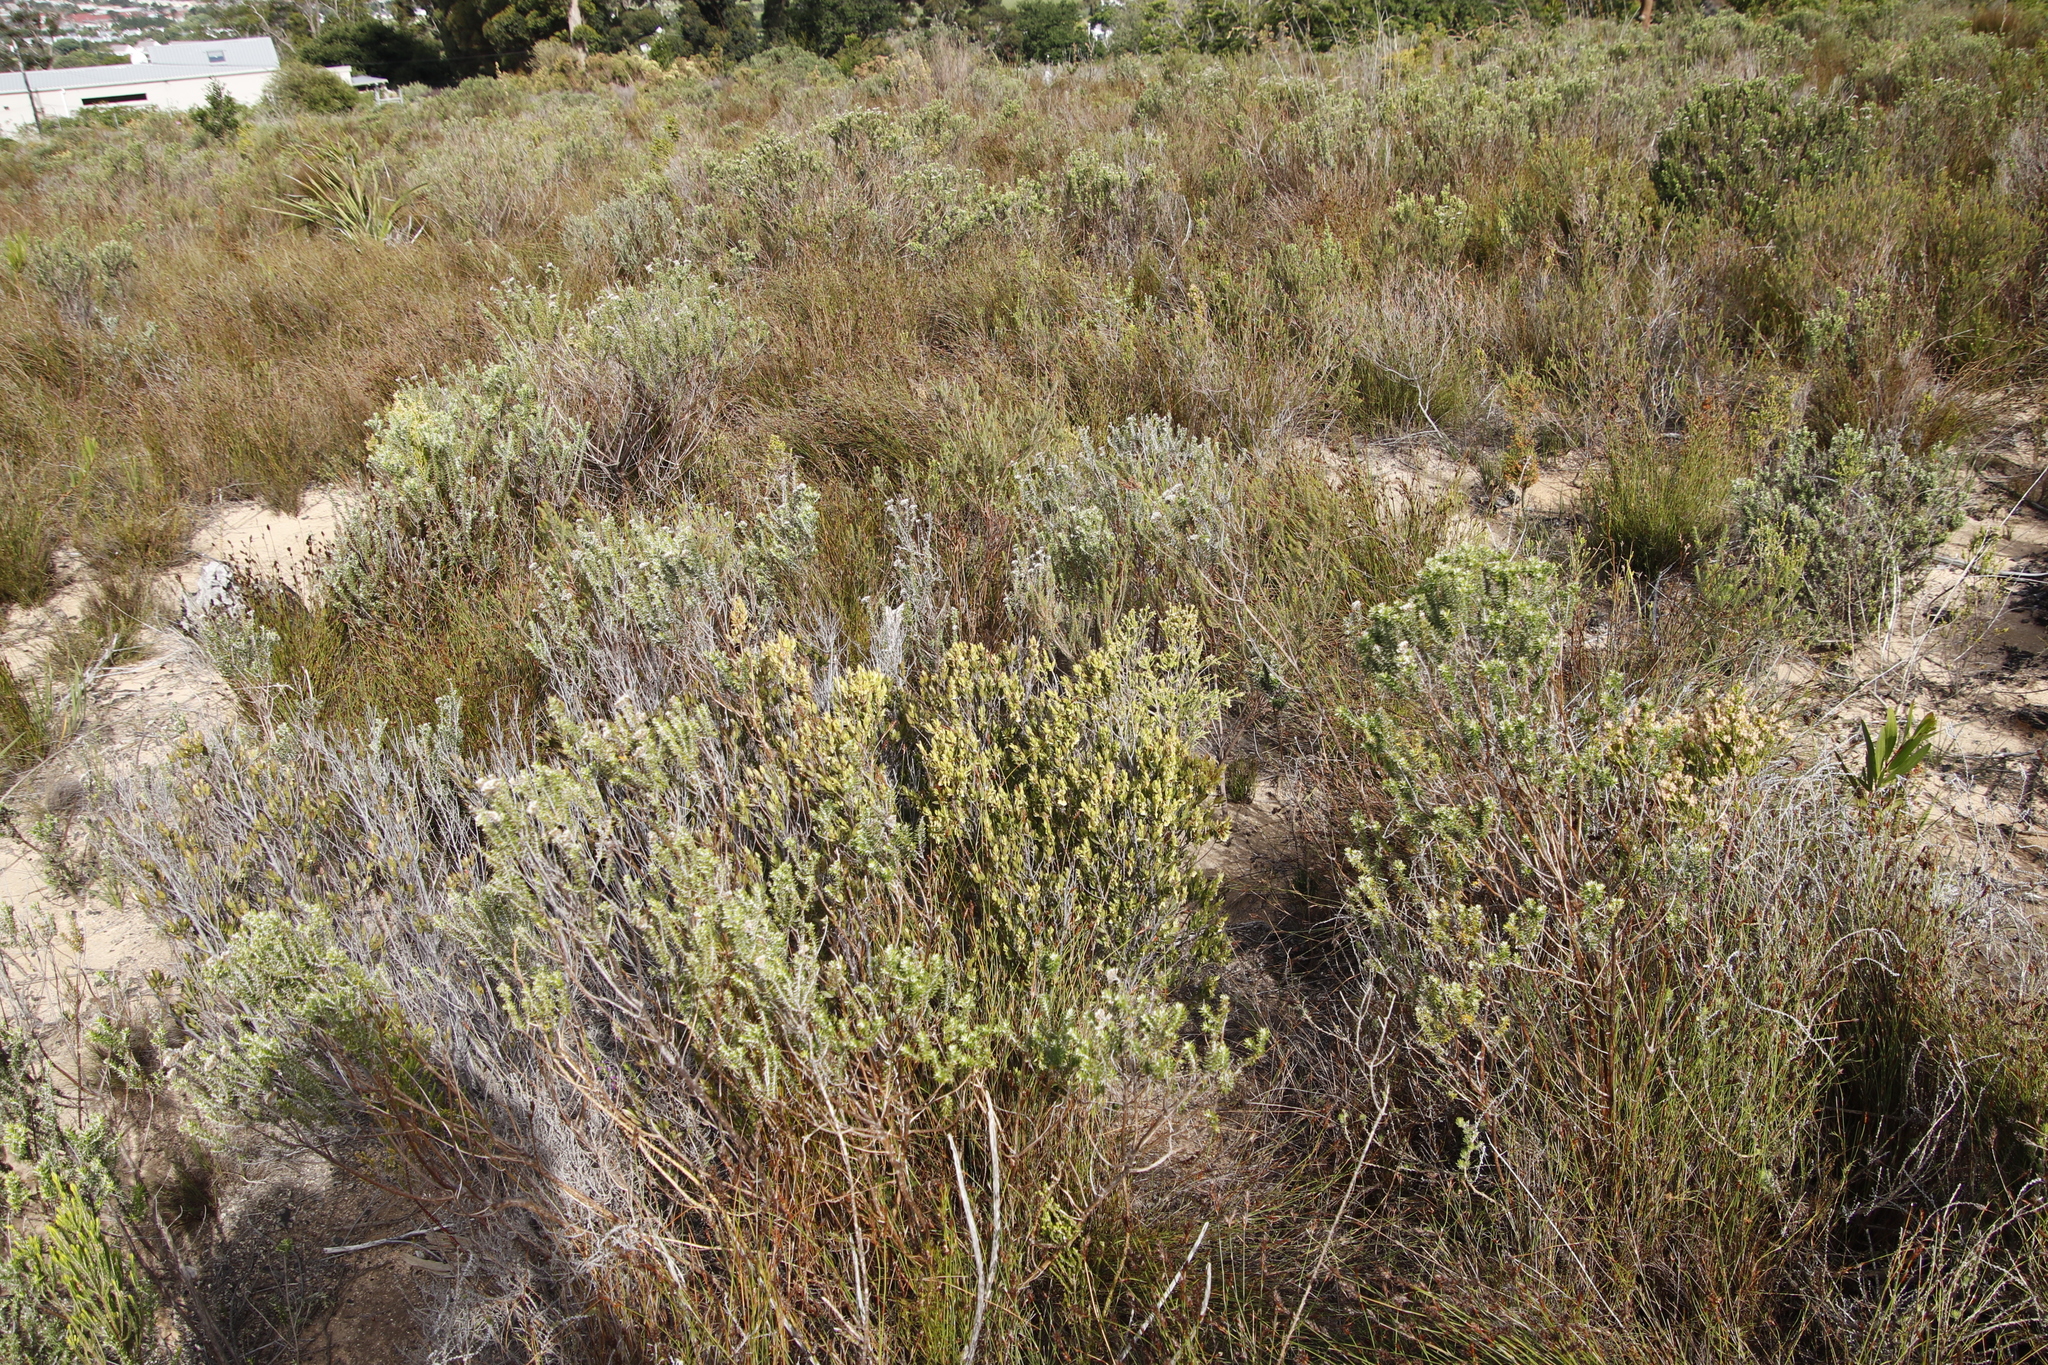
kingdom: Plantae
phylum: Tracheophyta
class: Magnoliopsida
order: Ericales
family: Ebenaceae
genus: Diospyros
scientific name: Diospyros glabra
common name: Fynbos star apple
